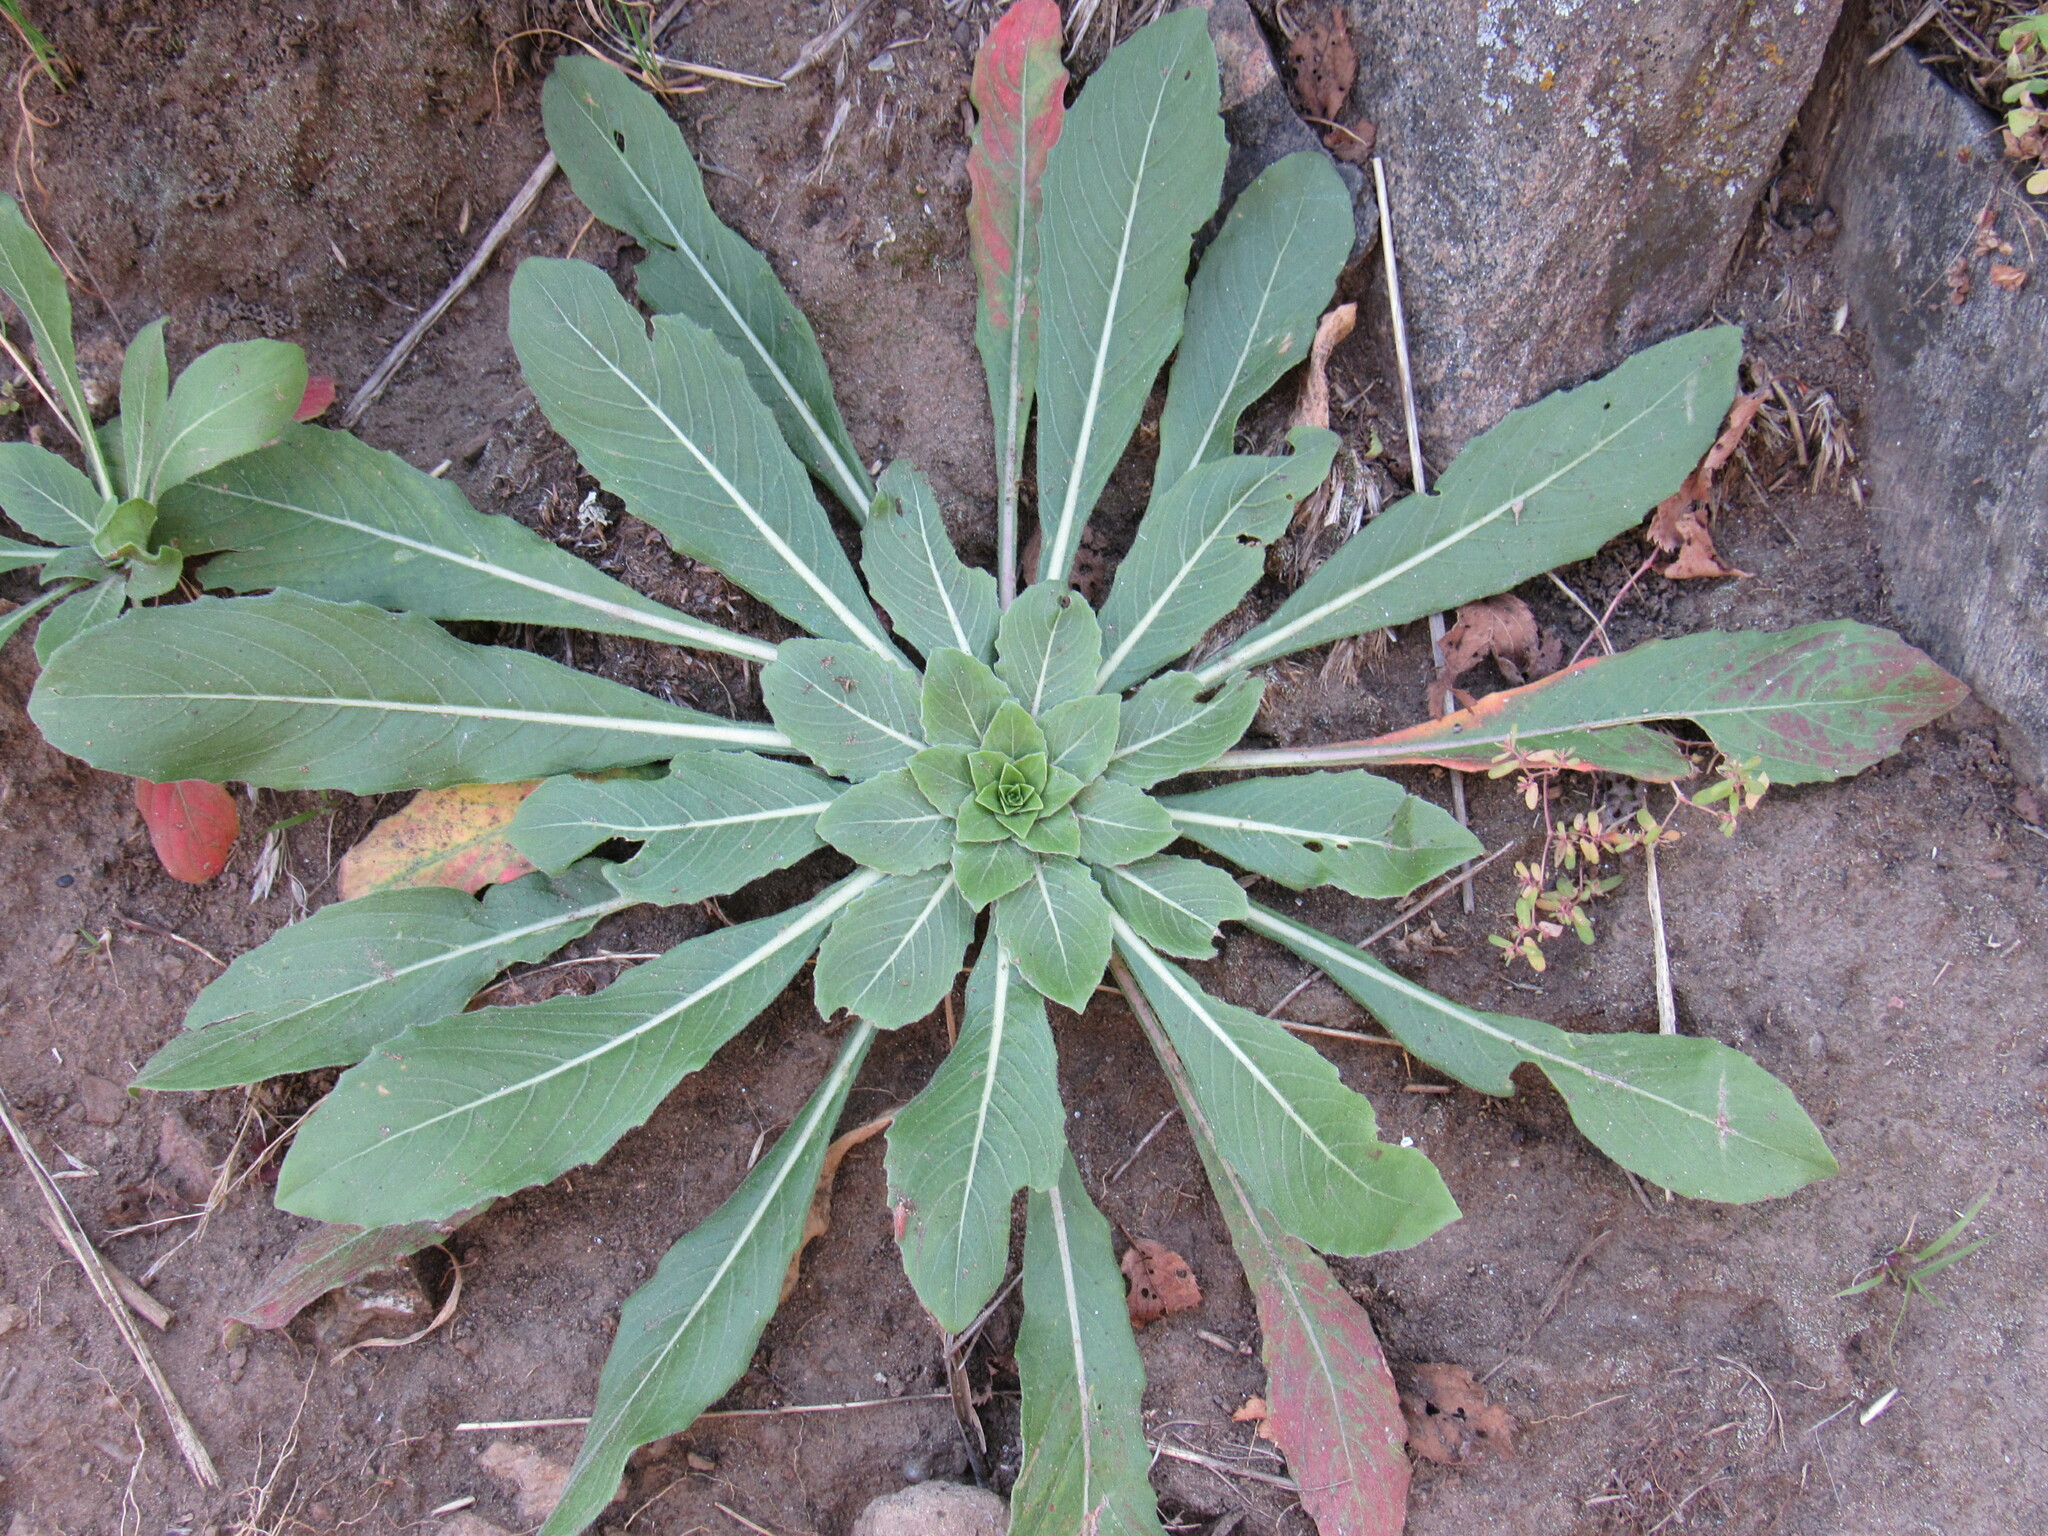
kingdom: Plantae
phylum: Tracheophyta
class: Magnoliopsida
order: Myrtales
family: Onagraceae
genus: Oenothera
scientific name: Oenothera villosa
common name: Hairy evening-primrose
